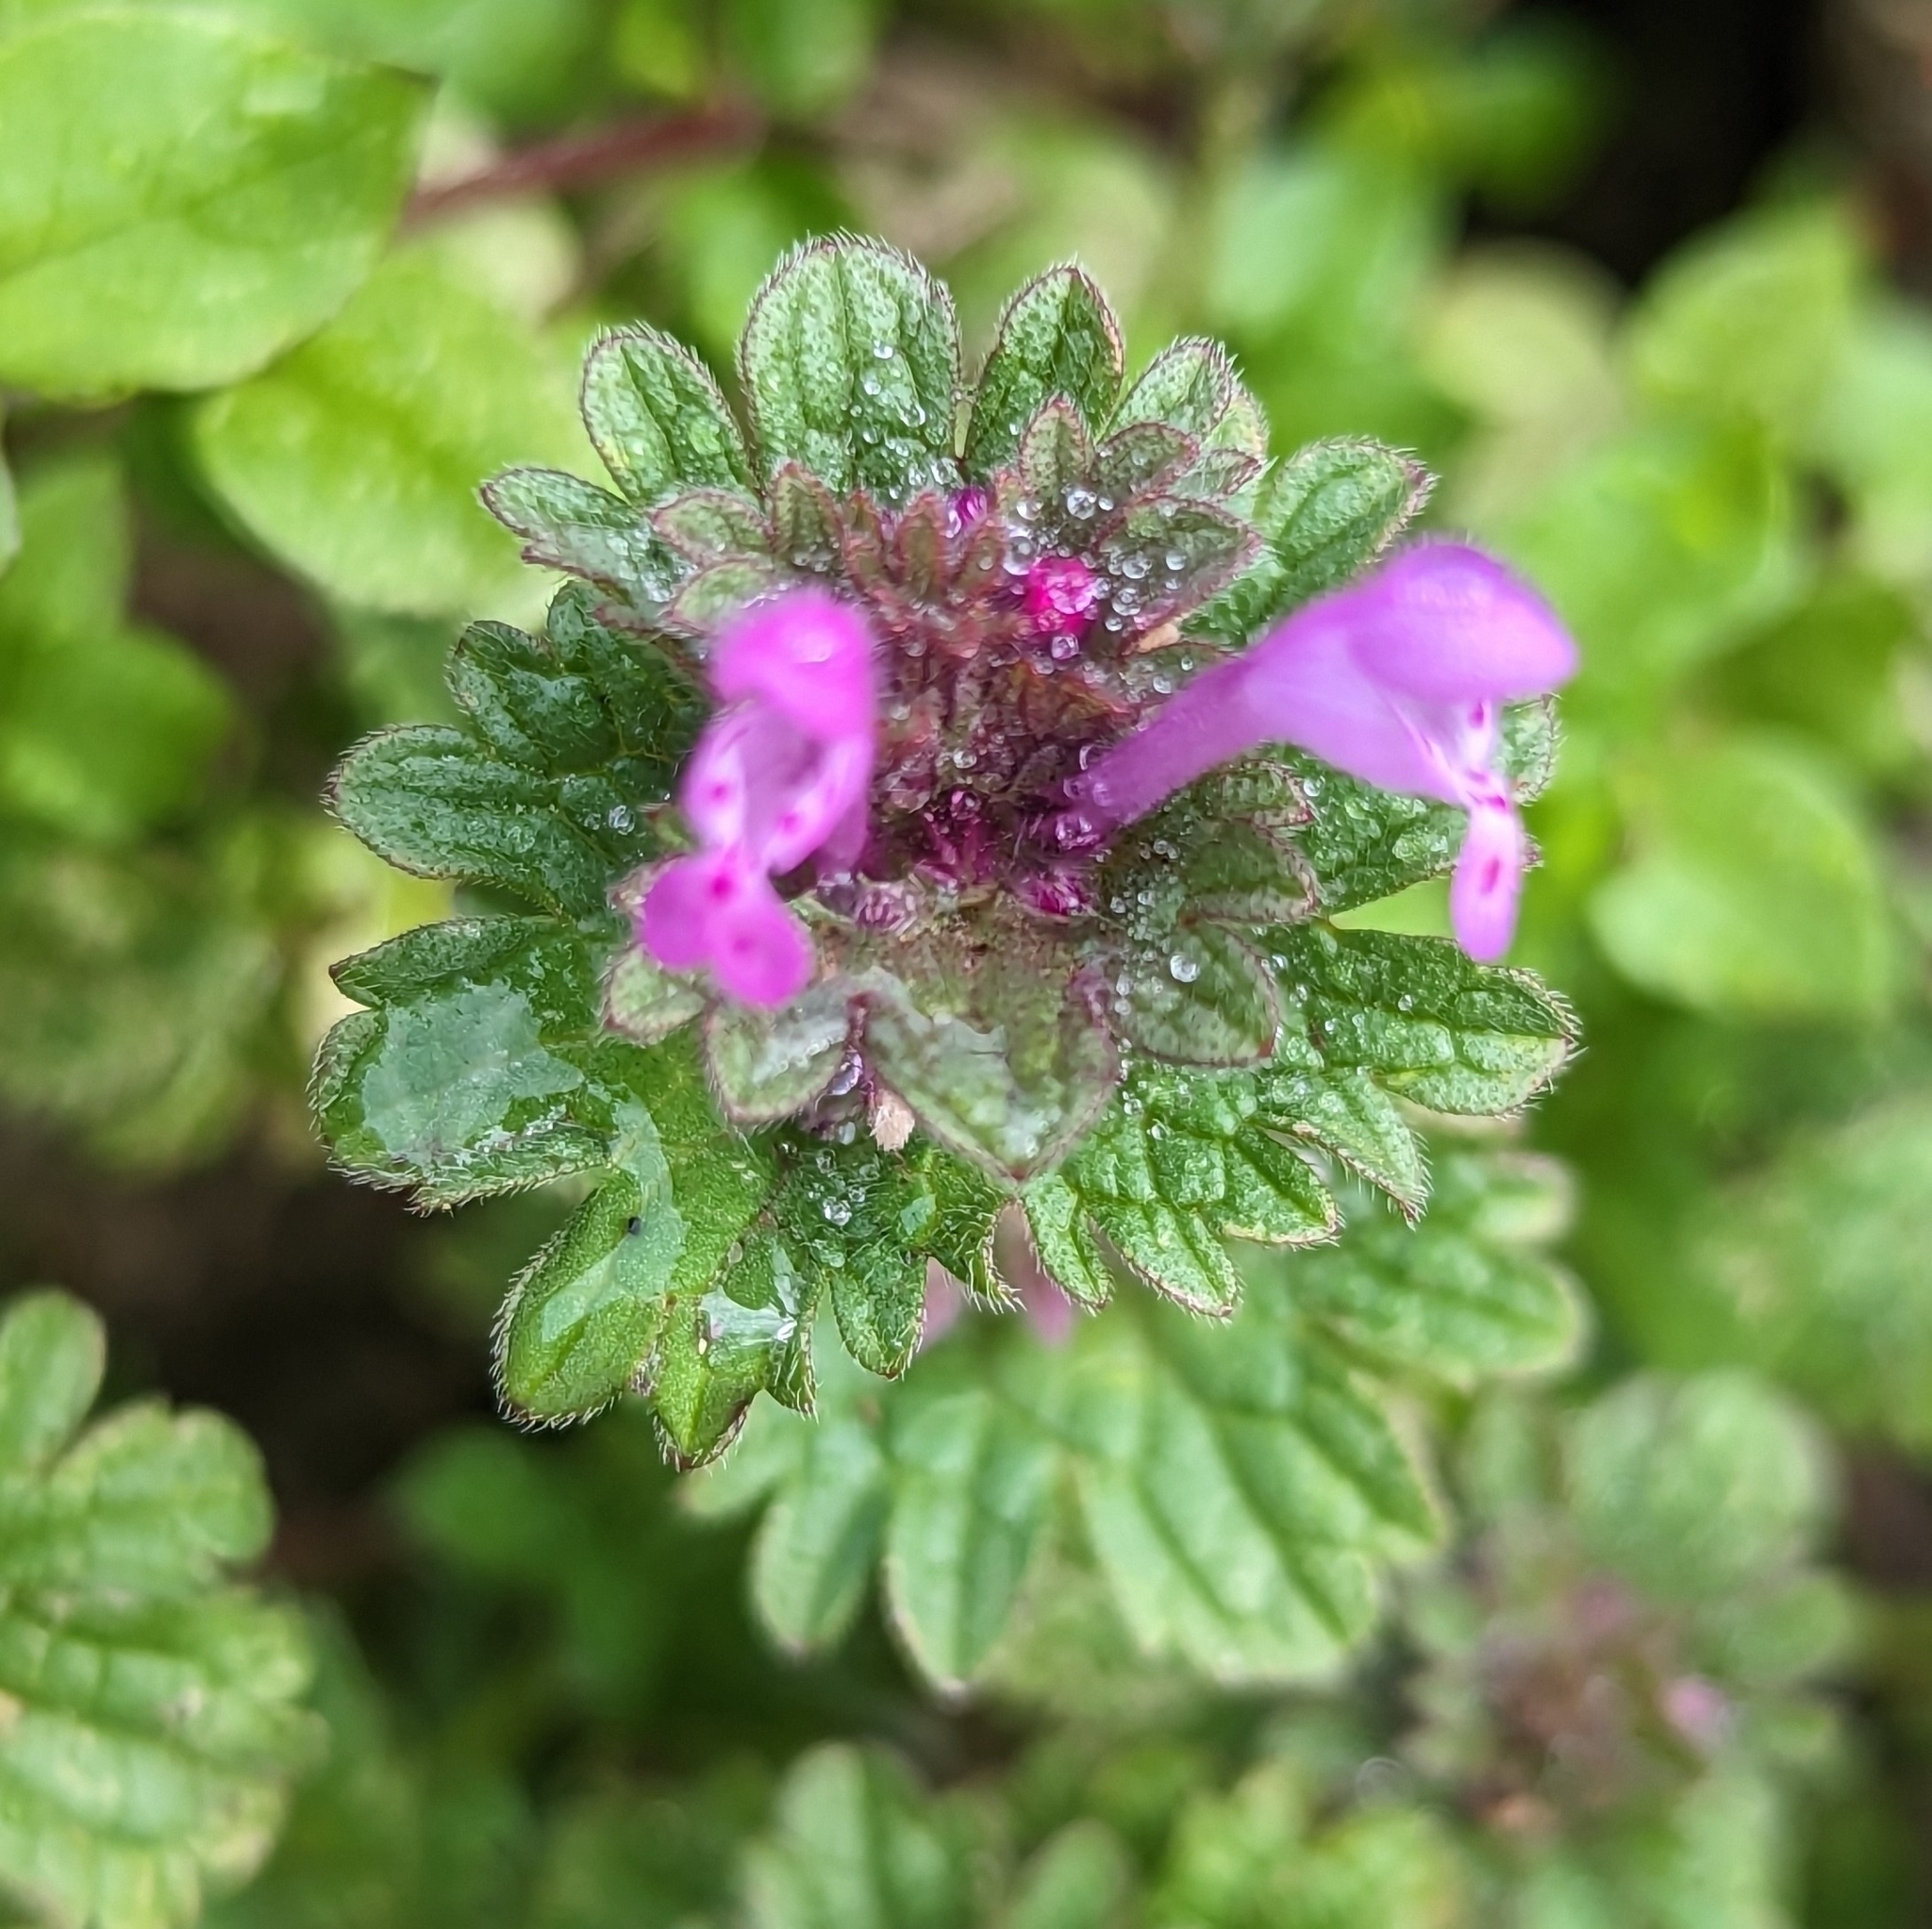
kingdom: Plantae
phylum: Tracheophyta
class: Magnoliopsida
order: Lamiales
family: Lamiaceae
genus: Lamium
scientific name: Lamium amplexicaule
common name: Henbit dead-nettle
